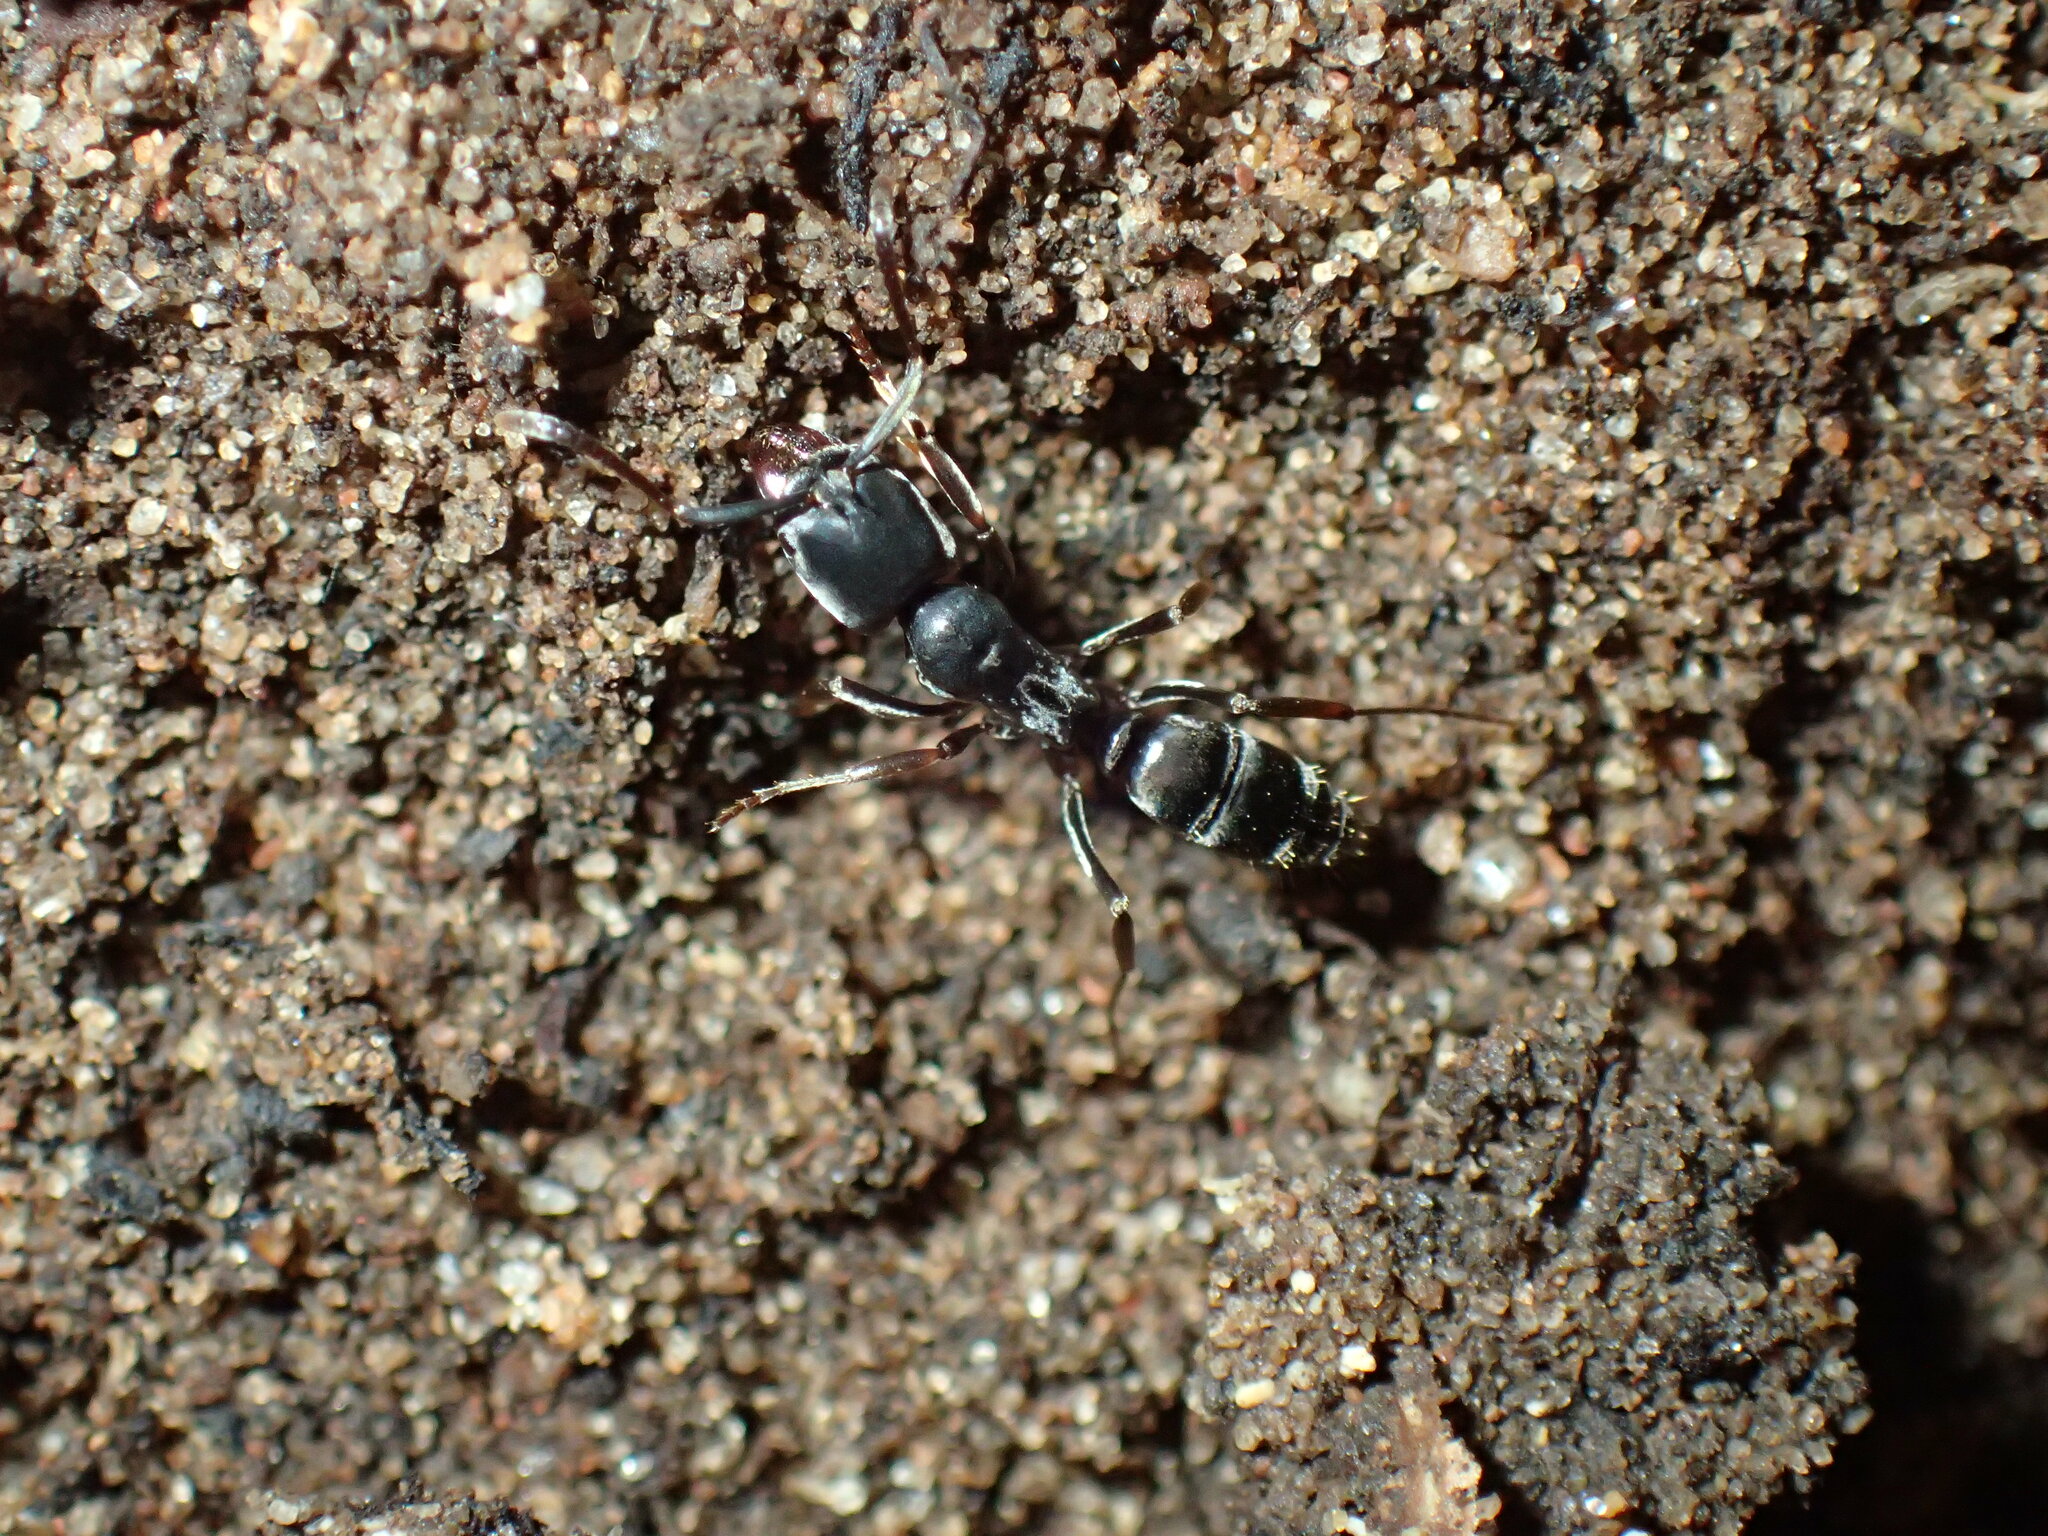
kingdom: Animalia
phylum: Arthropoda
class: Insecta
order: Hymenoptera
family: Formicidae
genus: Mesoponera
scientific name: Mesoponera caffraria
